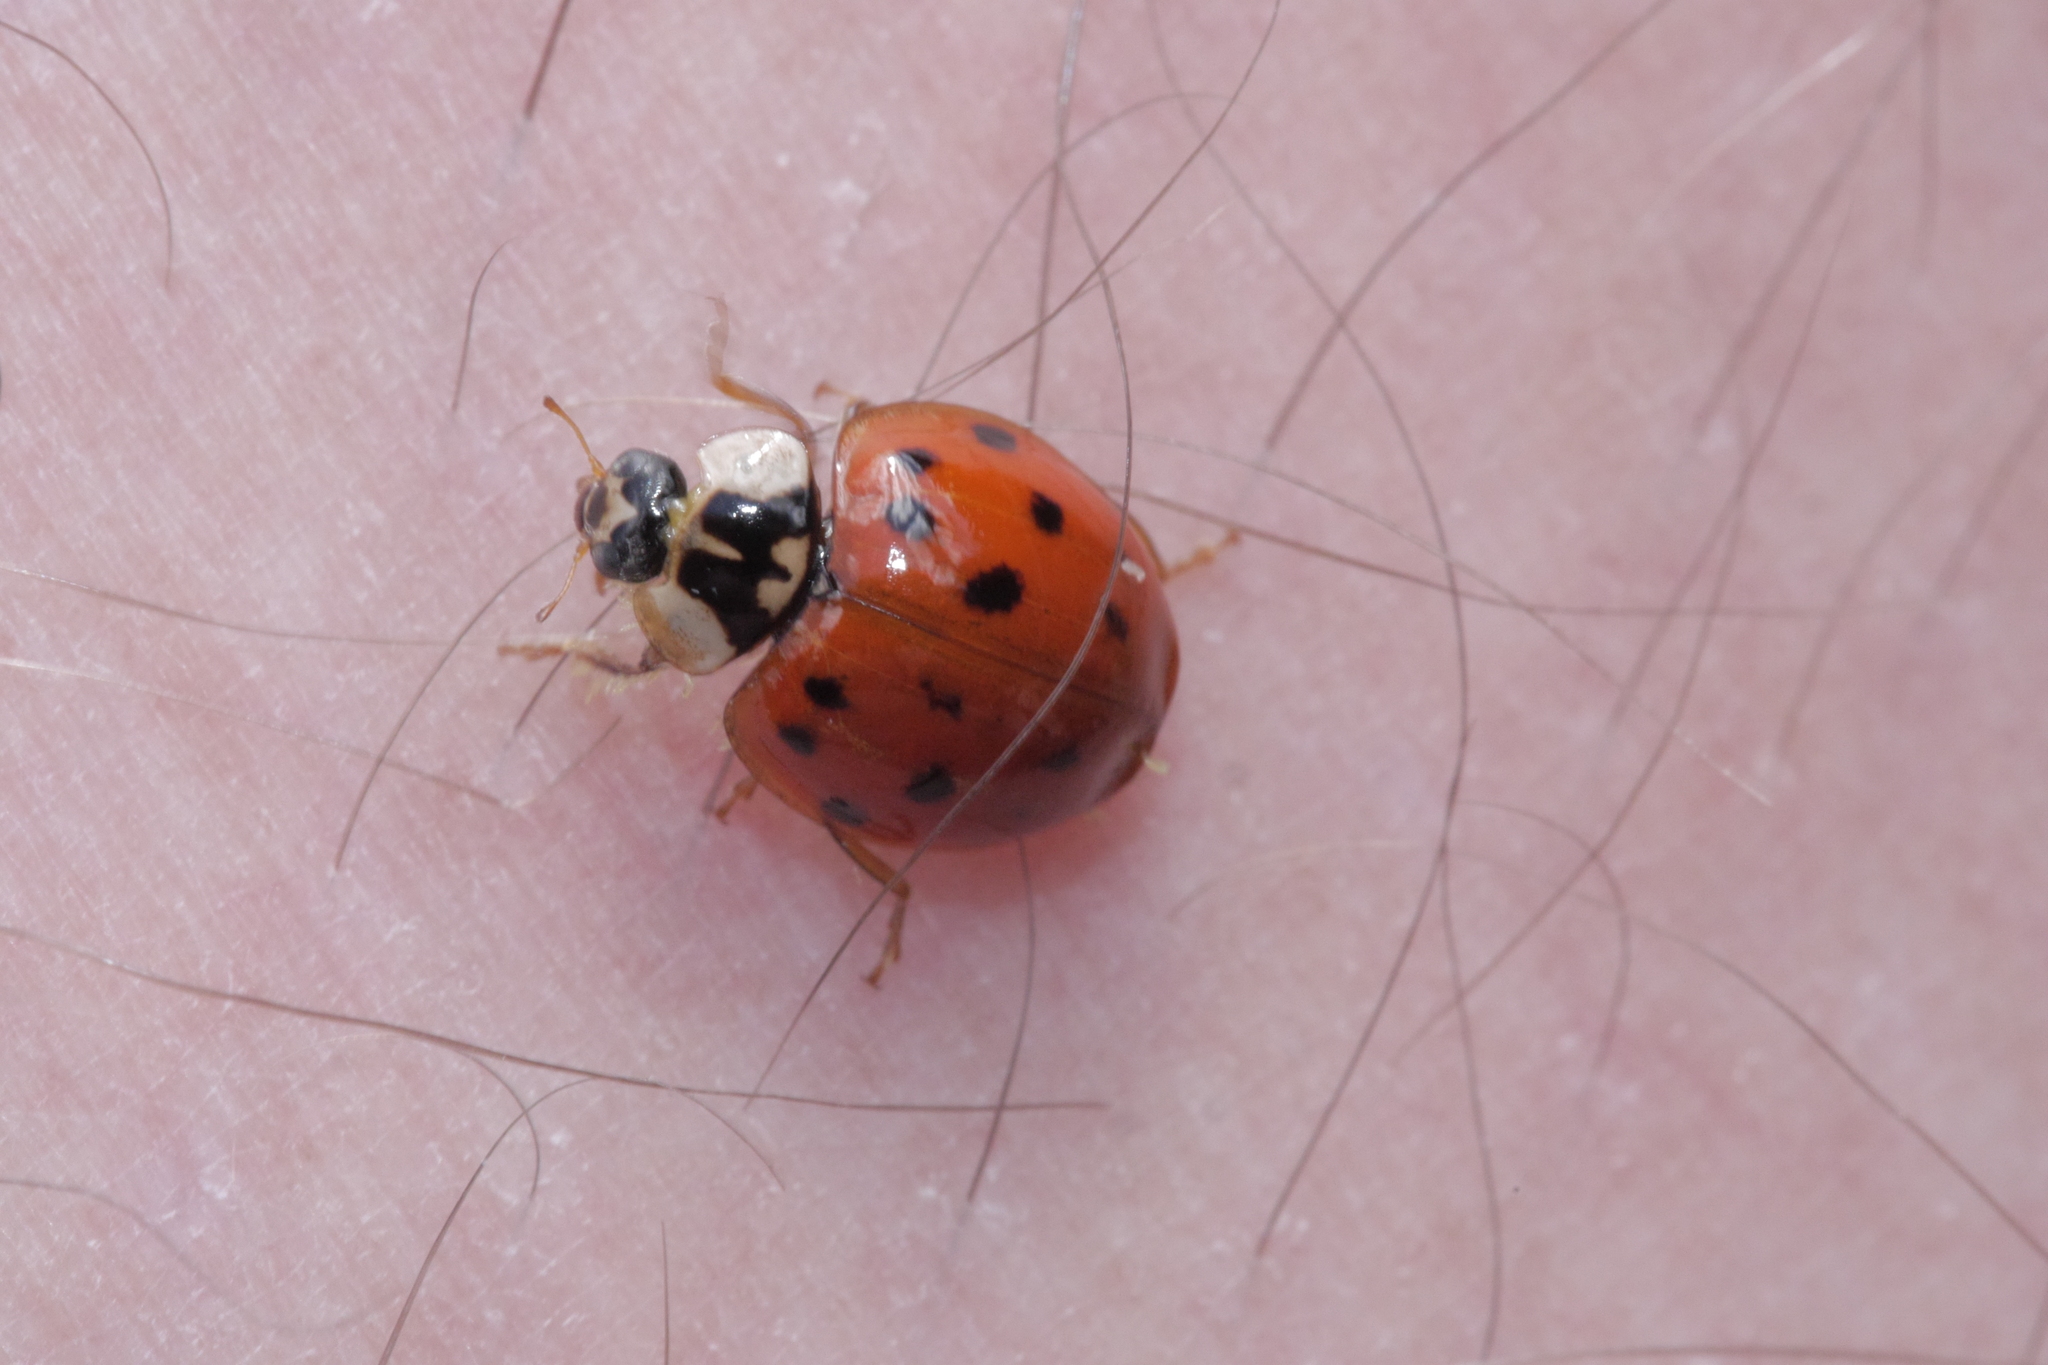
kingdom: Animalia
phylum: Arthropoda
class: Insecta
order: Coleoptera
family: Coccinellidae
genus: Harmonia
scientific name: Harmonia axyridis
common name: Harlequin ladybird
